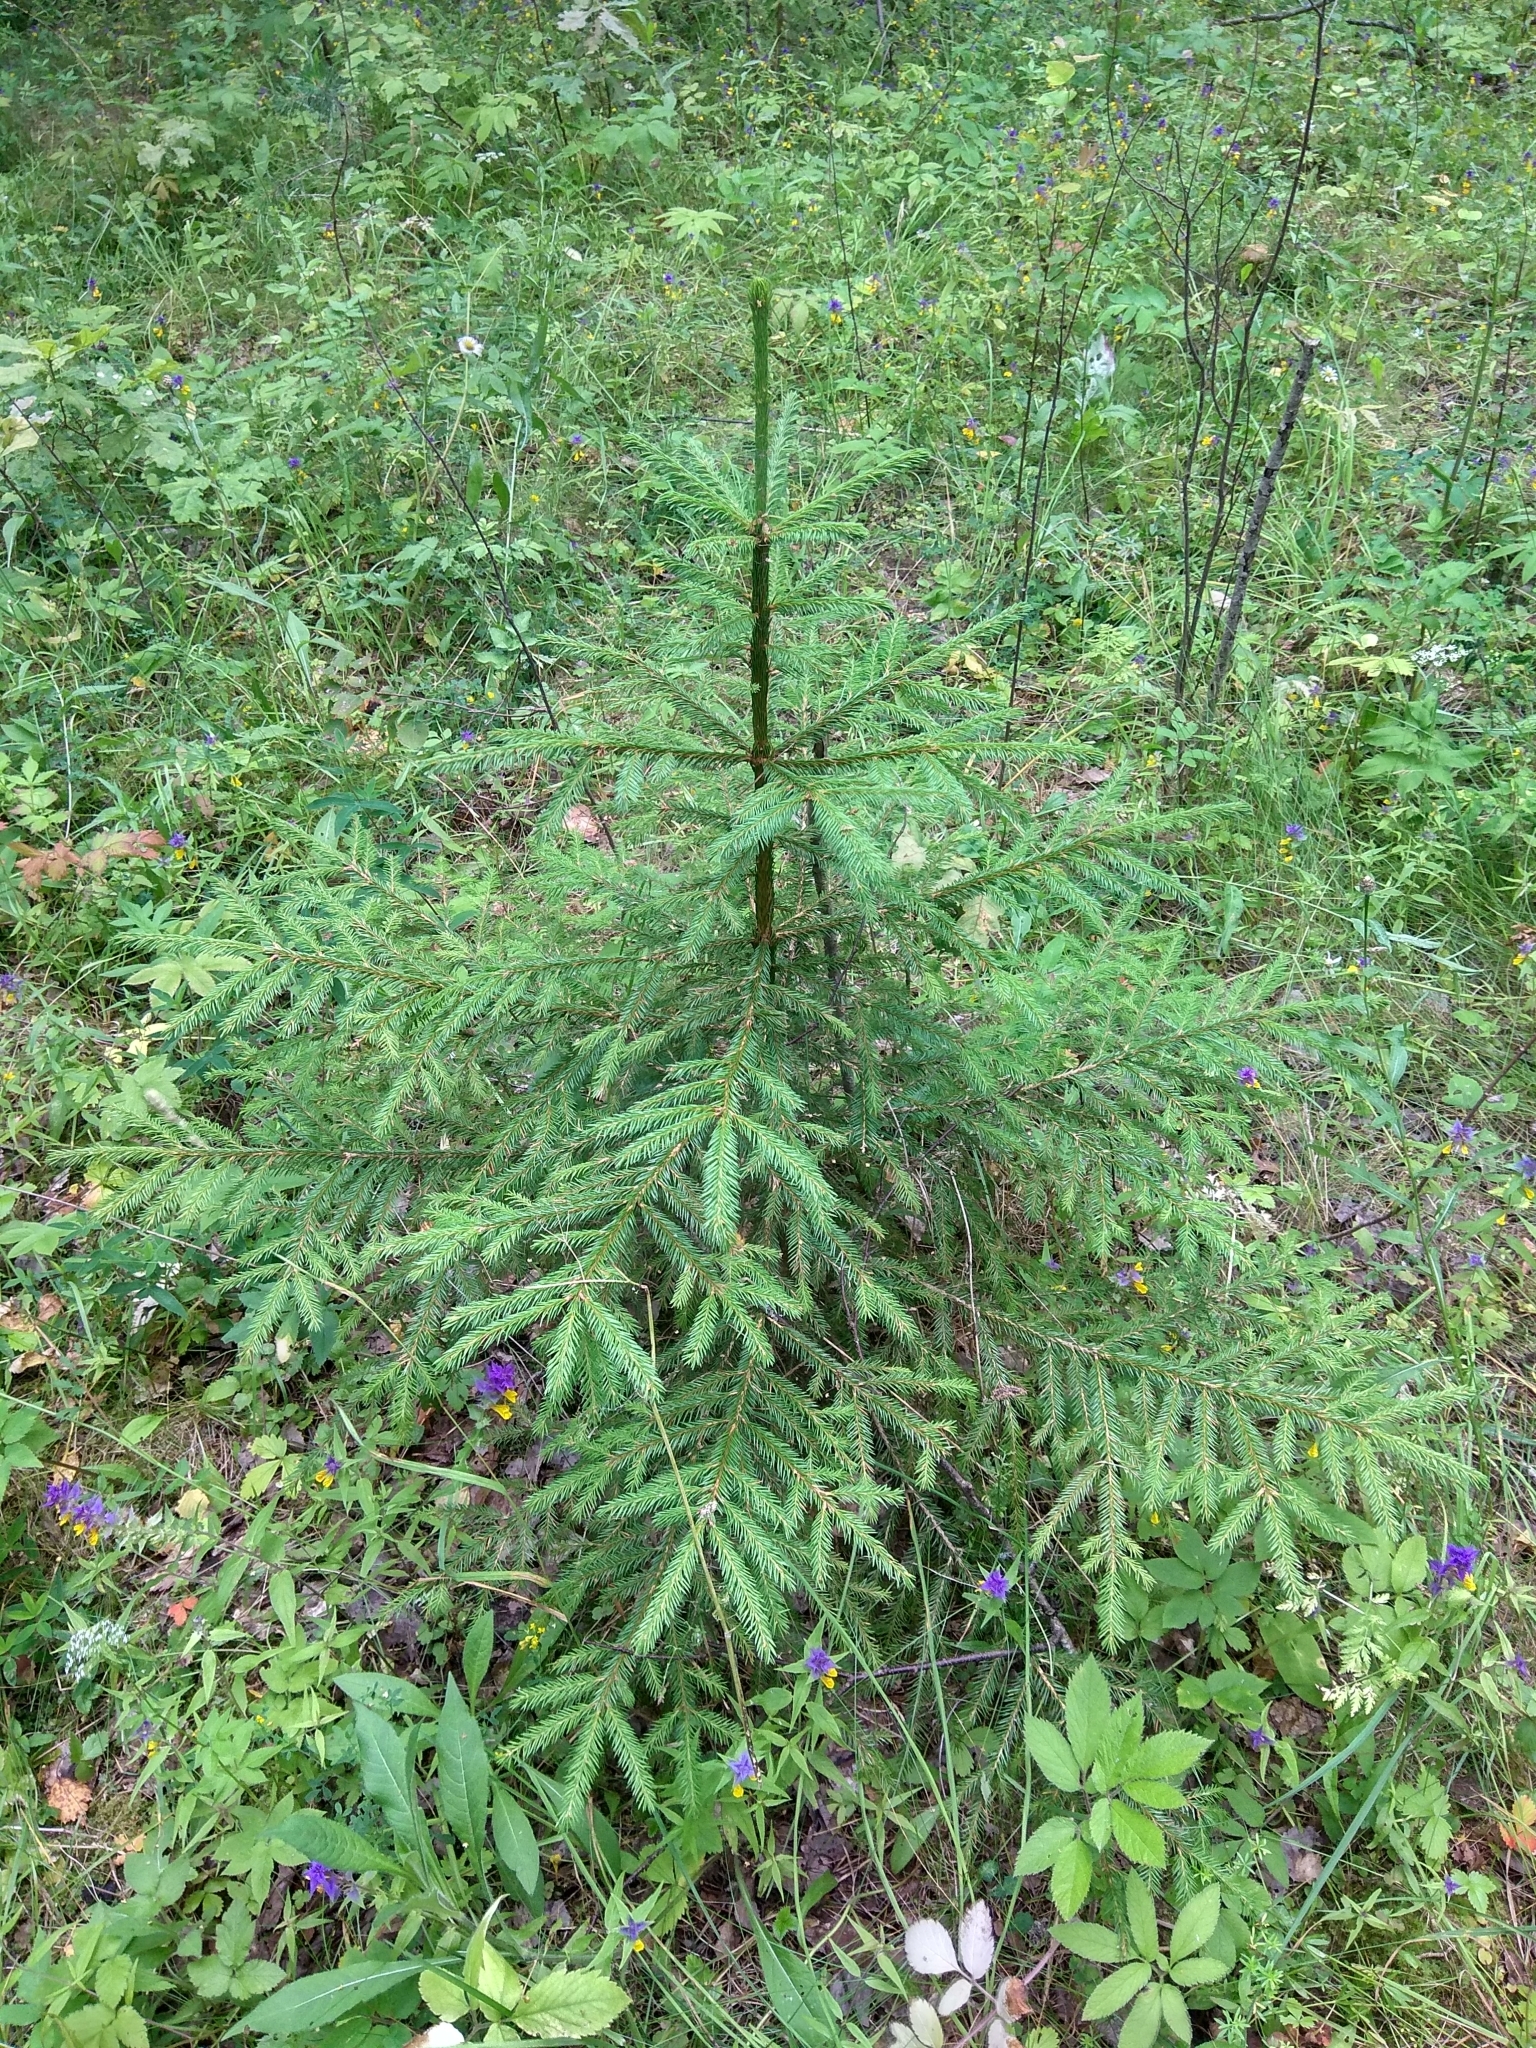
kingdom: Plantae
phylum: Tracheophyta
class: Pinopsida
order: Pinales
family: Pinaceae
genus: Picea
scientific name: Picea abies
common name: Norway spruce
